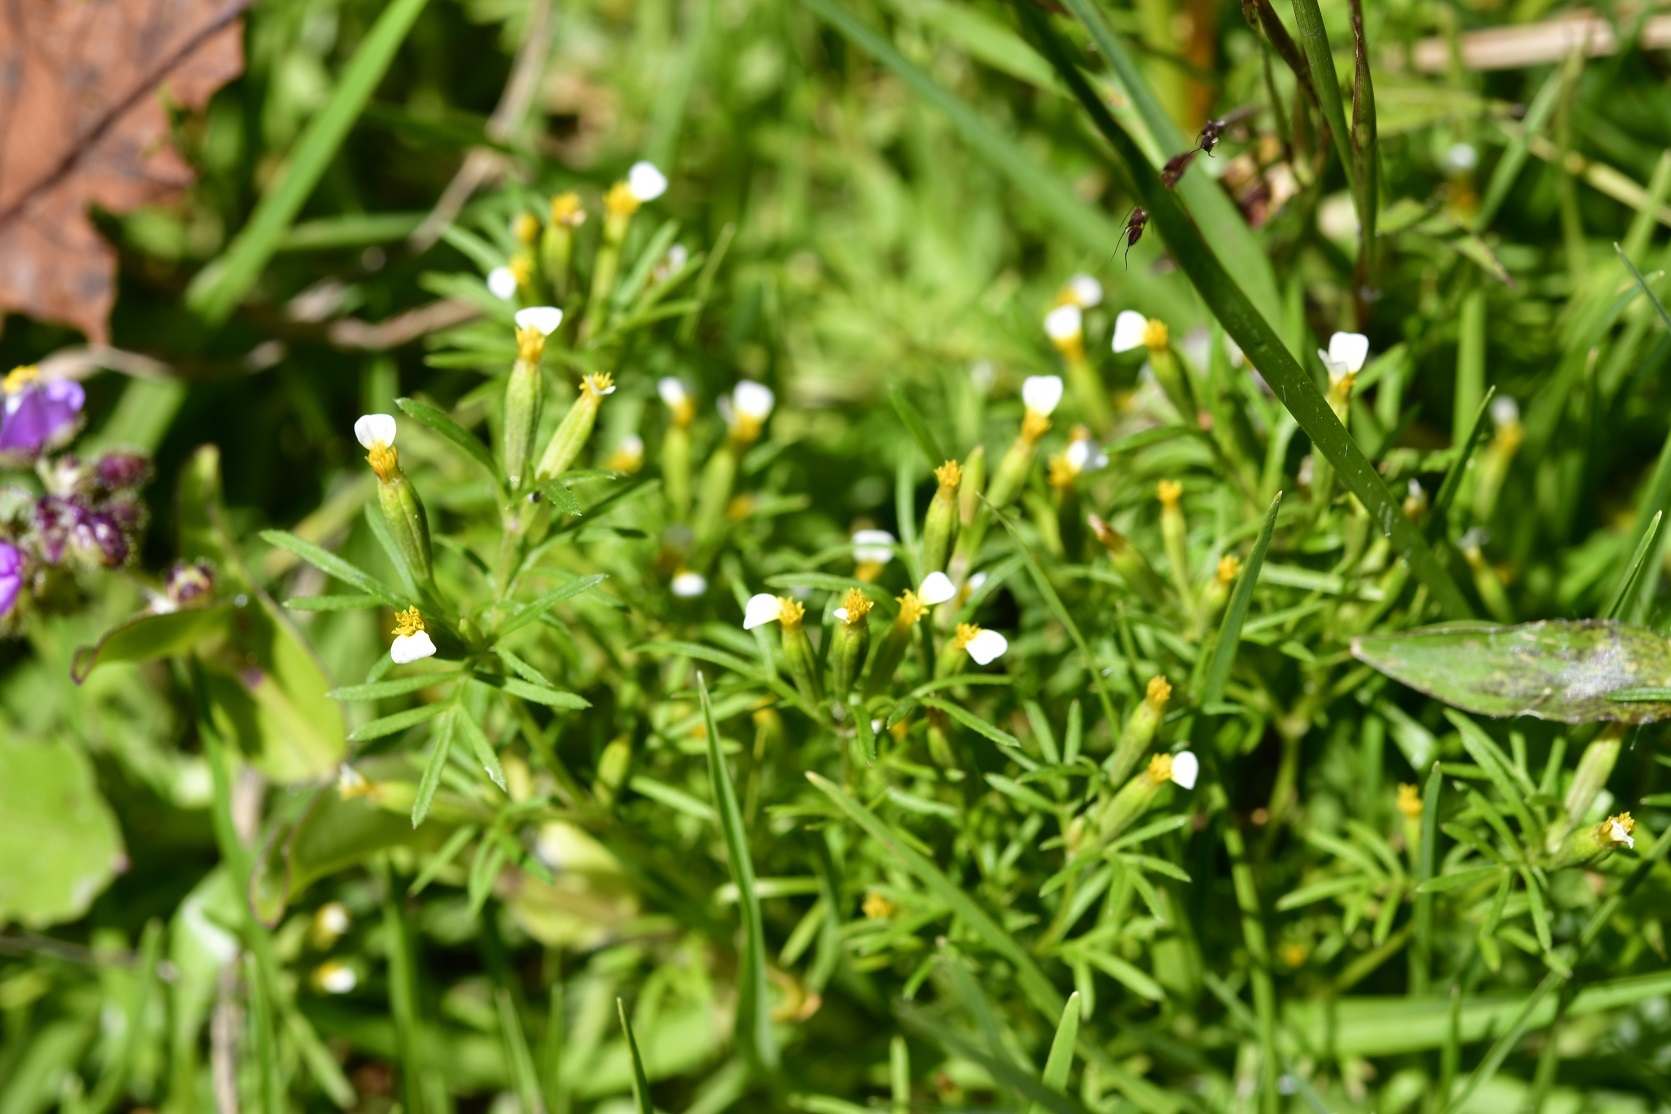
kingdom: Plantae
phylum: Tracheophyta
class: Magnoliopsida
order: Asterales
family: Asteraceae
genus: Tagetes
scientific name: Tagetes filifolia
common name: Lesser marigold
